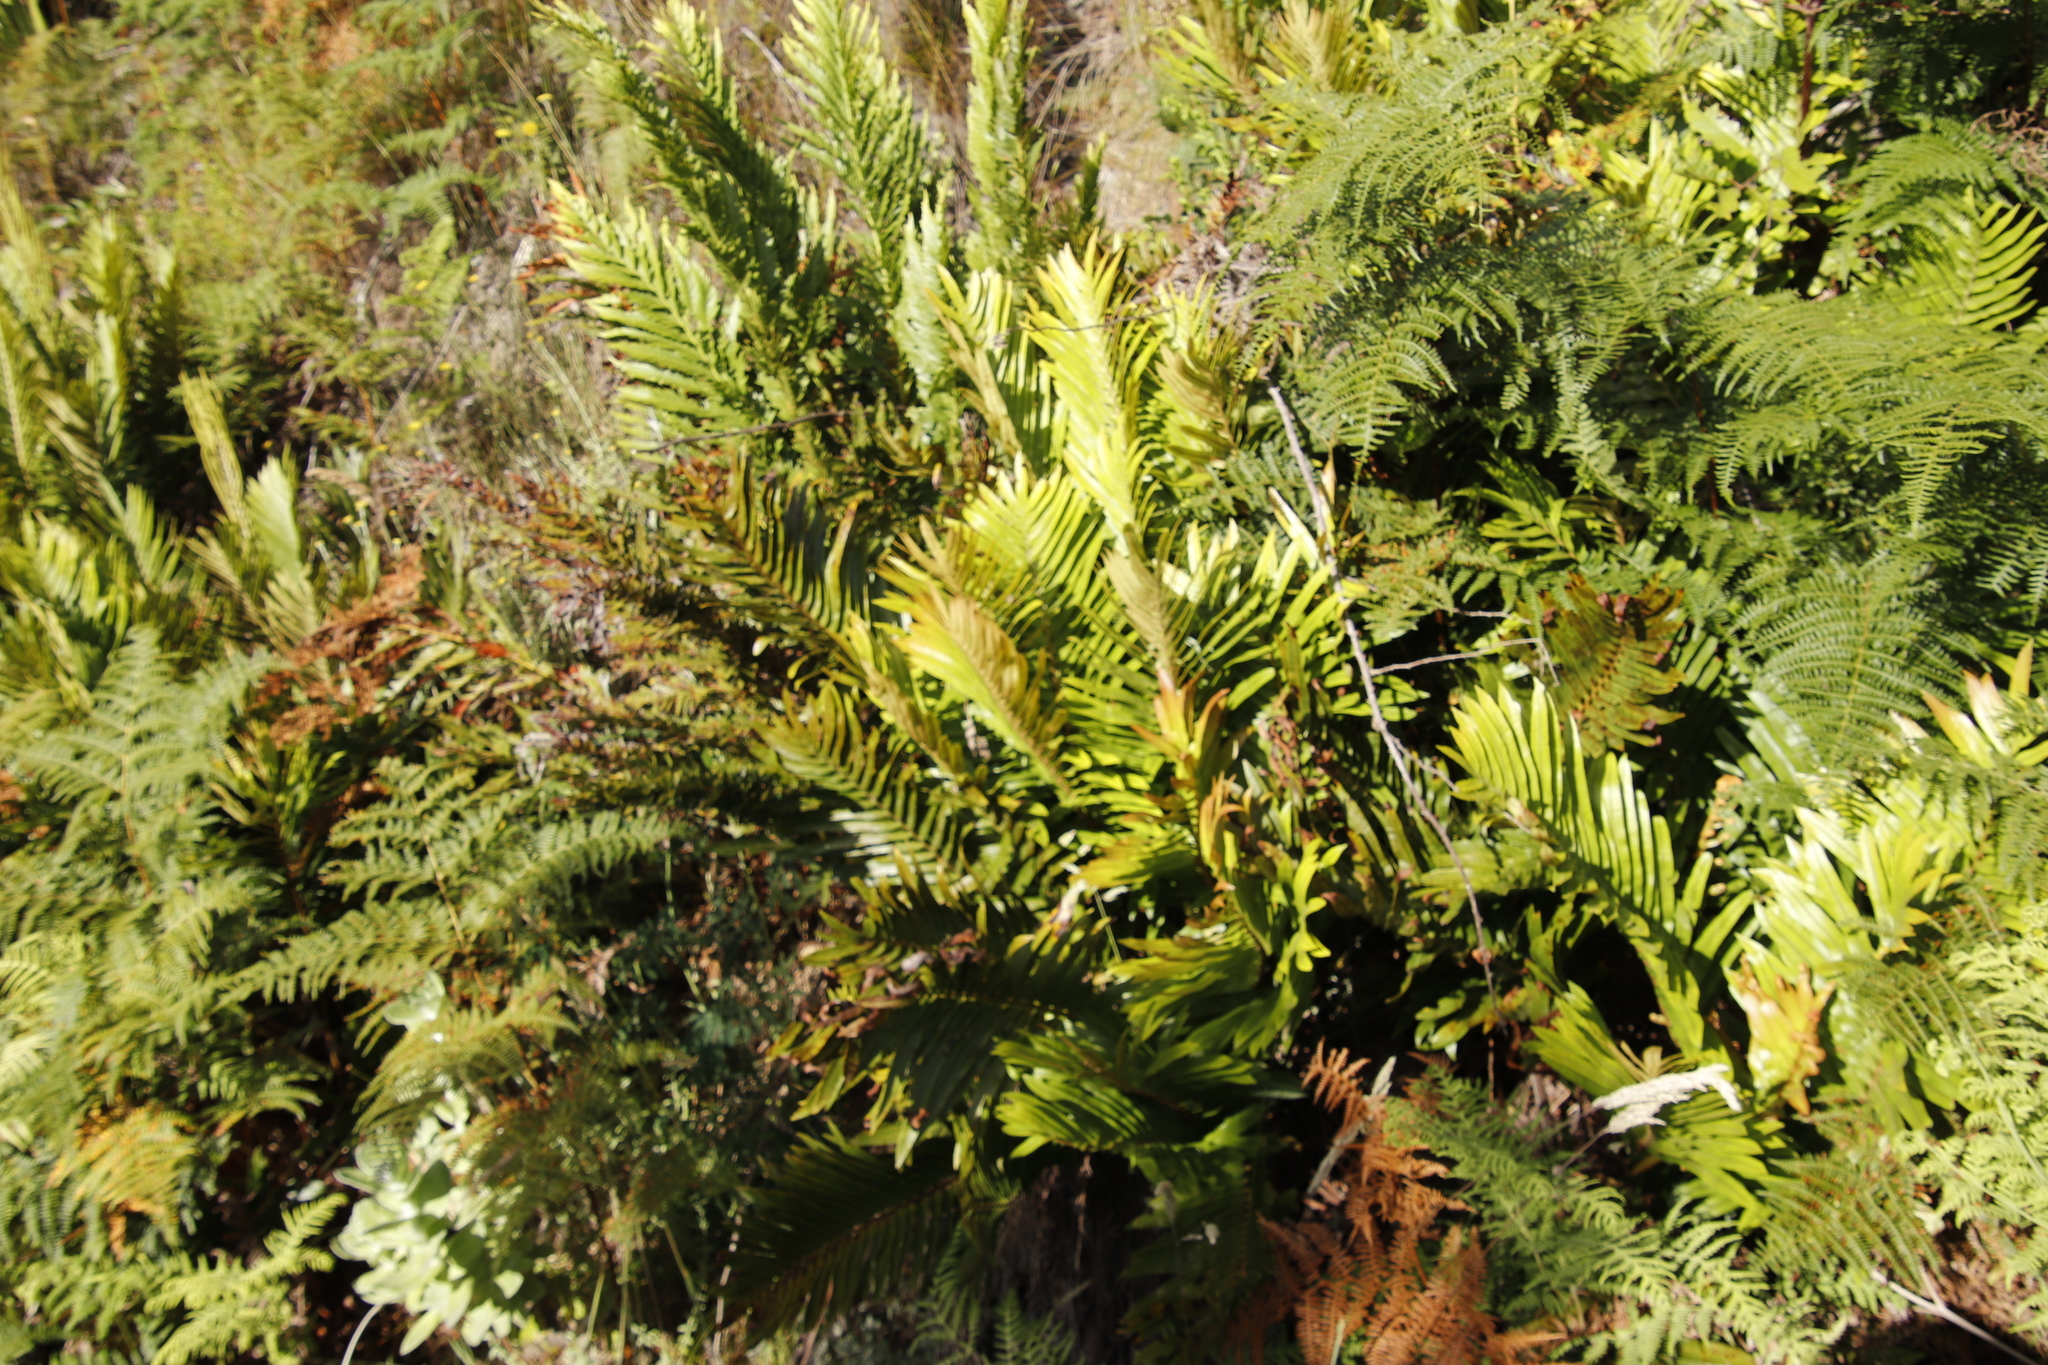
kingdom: Plantae
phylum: Tracheophyta
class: Polypodiopsida
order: Polypodiales
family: Blechnaceae
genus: Lomariocycas
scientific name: Lomariocycas tabularis
